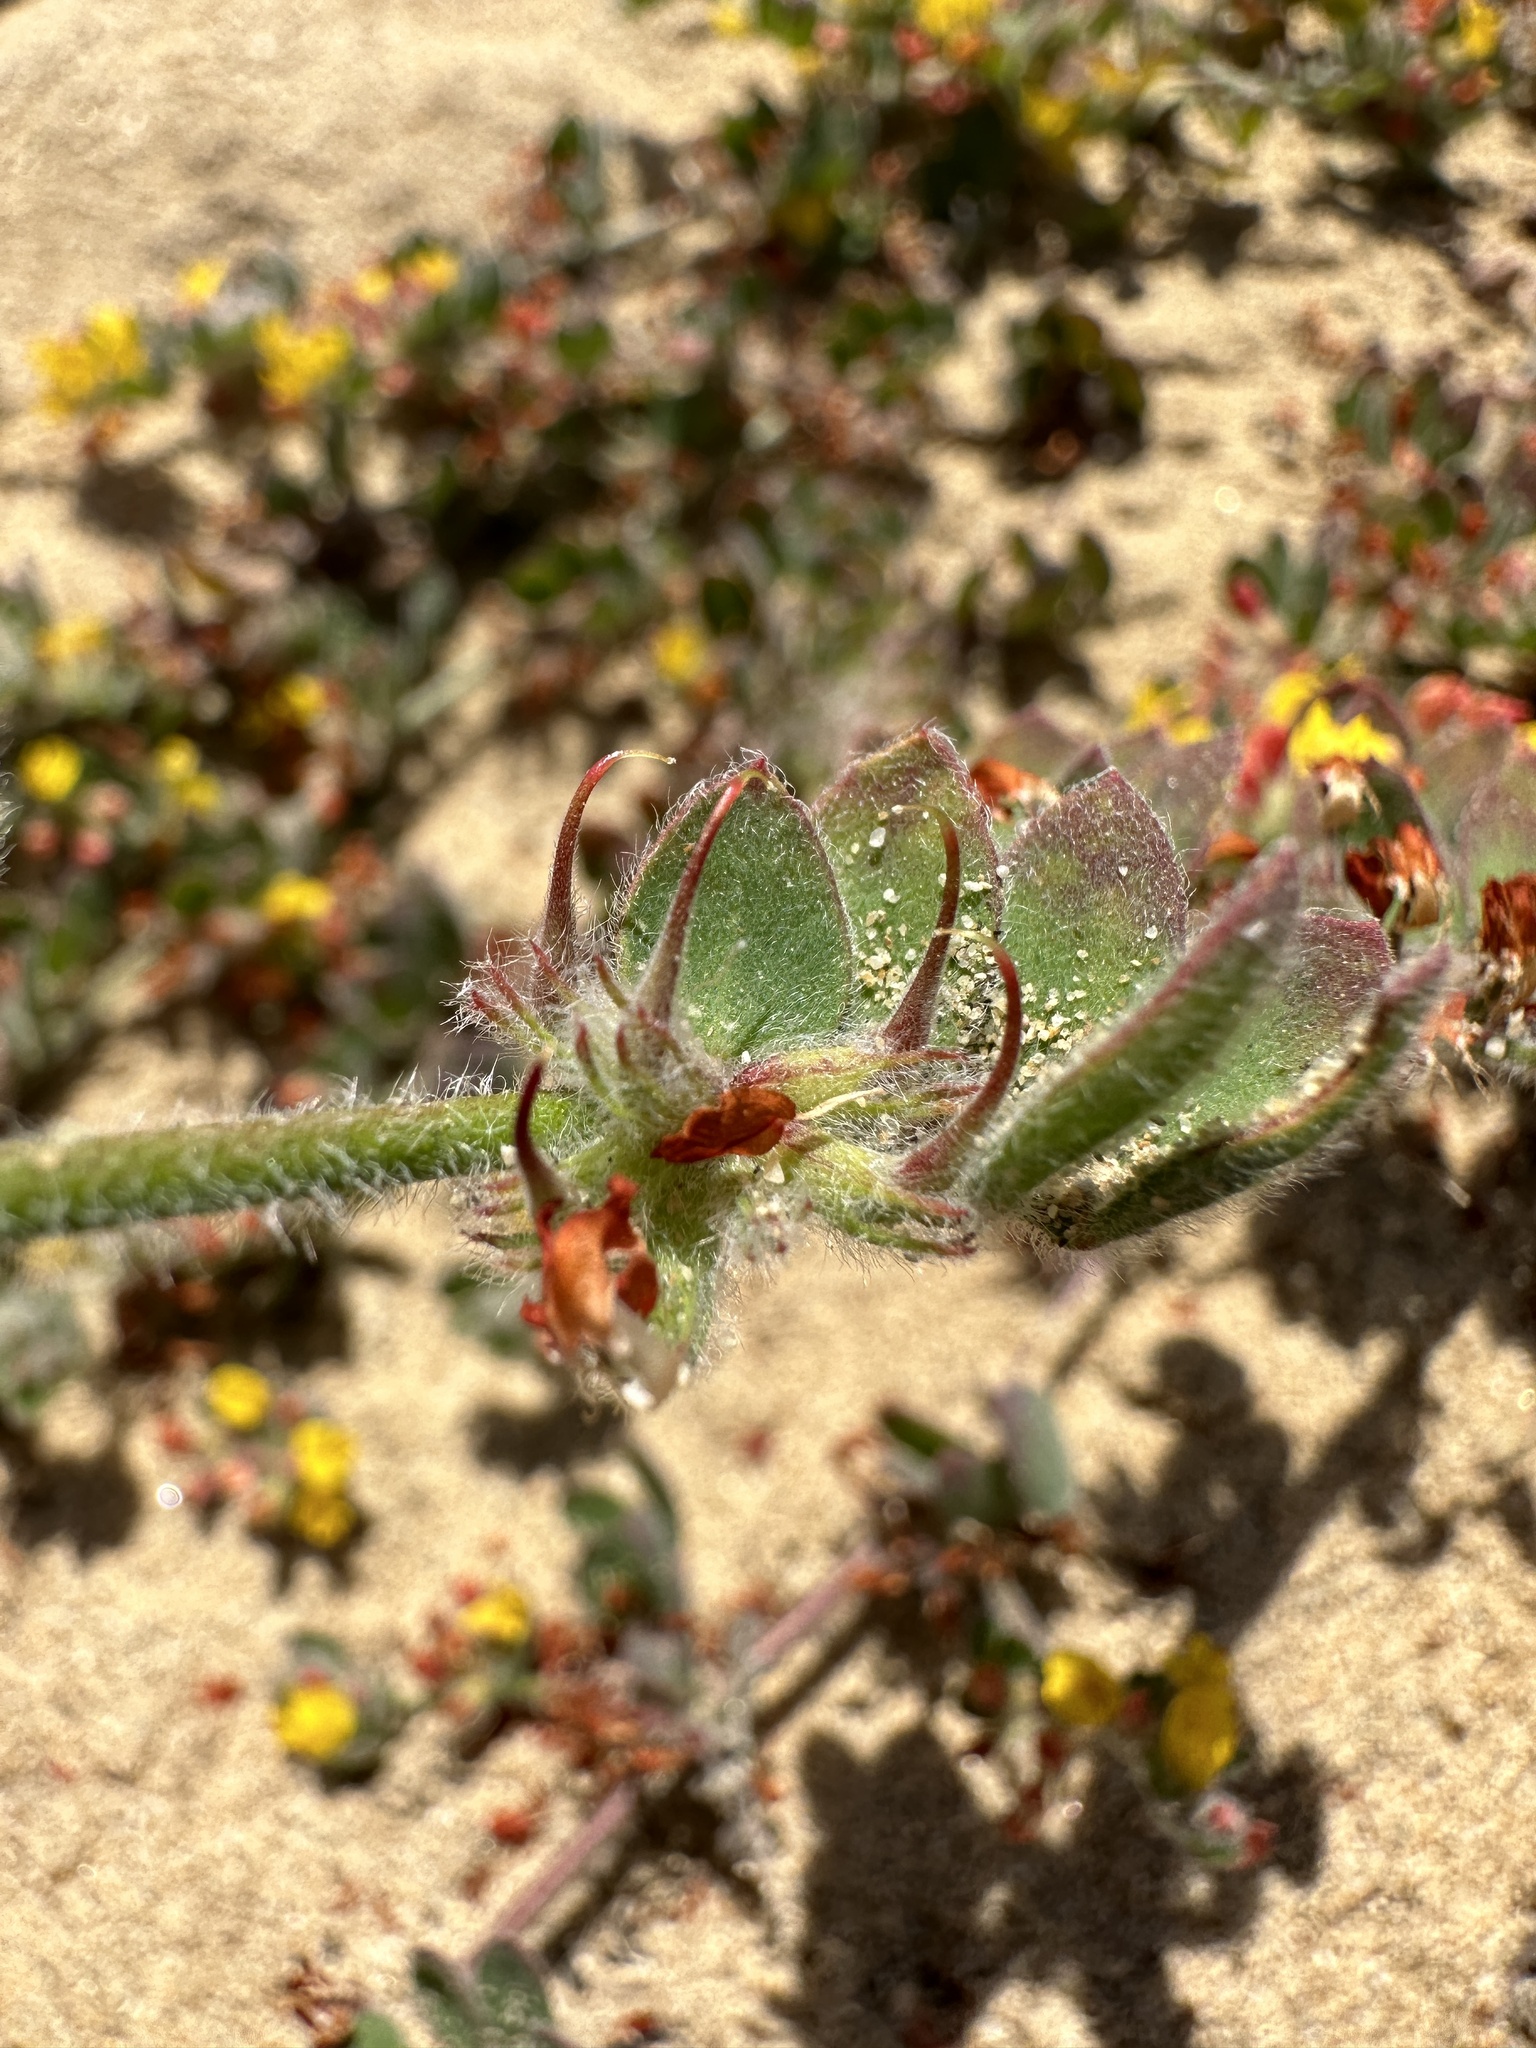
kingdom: Plantae
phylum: Tracheophyta
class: Magnoliopsida
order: Fabales
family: Fabaceae
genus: Acmispon
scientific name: Acmispon tomentosus
